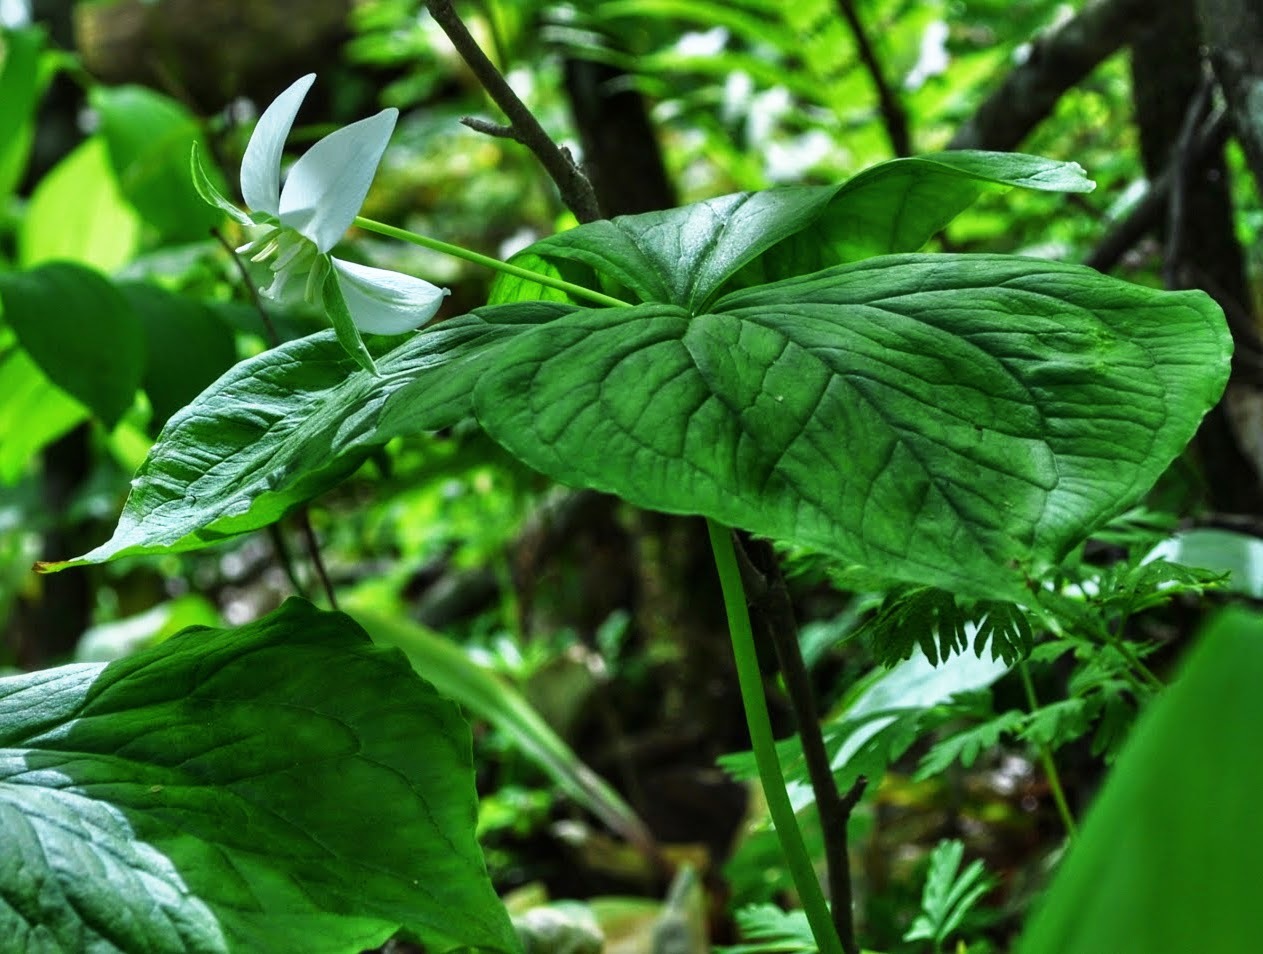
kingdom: Plantae
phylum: Tracheophyta
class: Liliopsida
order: Liliales
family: Melanthiaceae
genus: Trillium
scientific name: Trillium flexipes
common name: Drooping trillium
